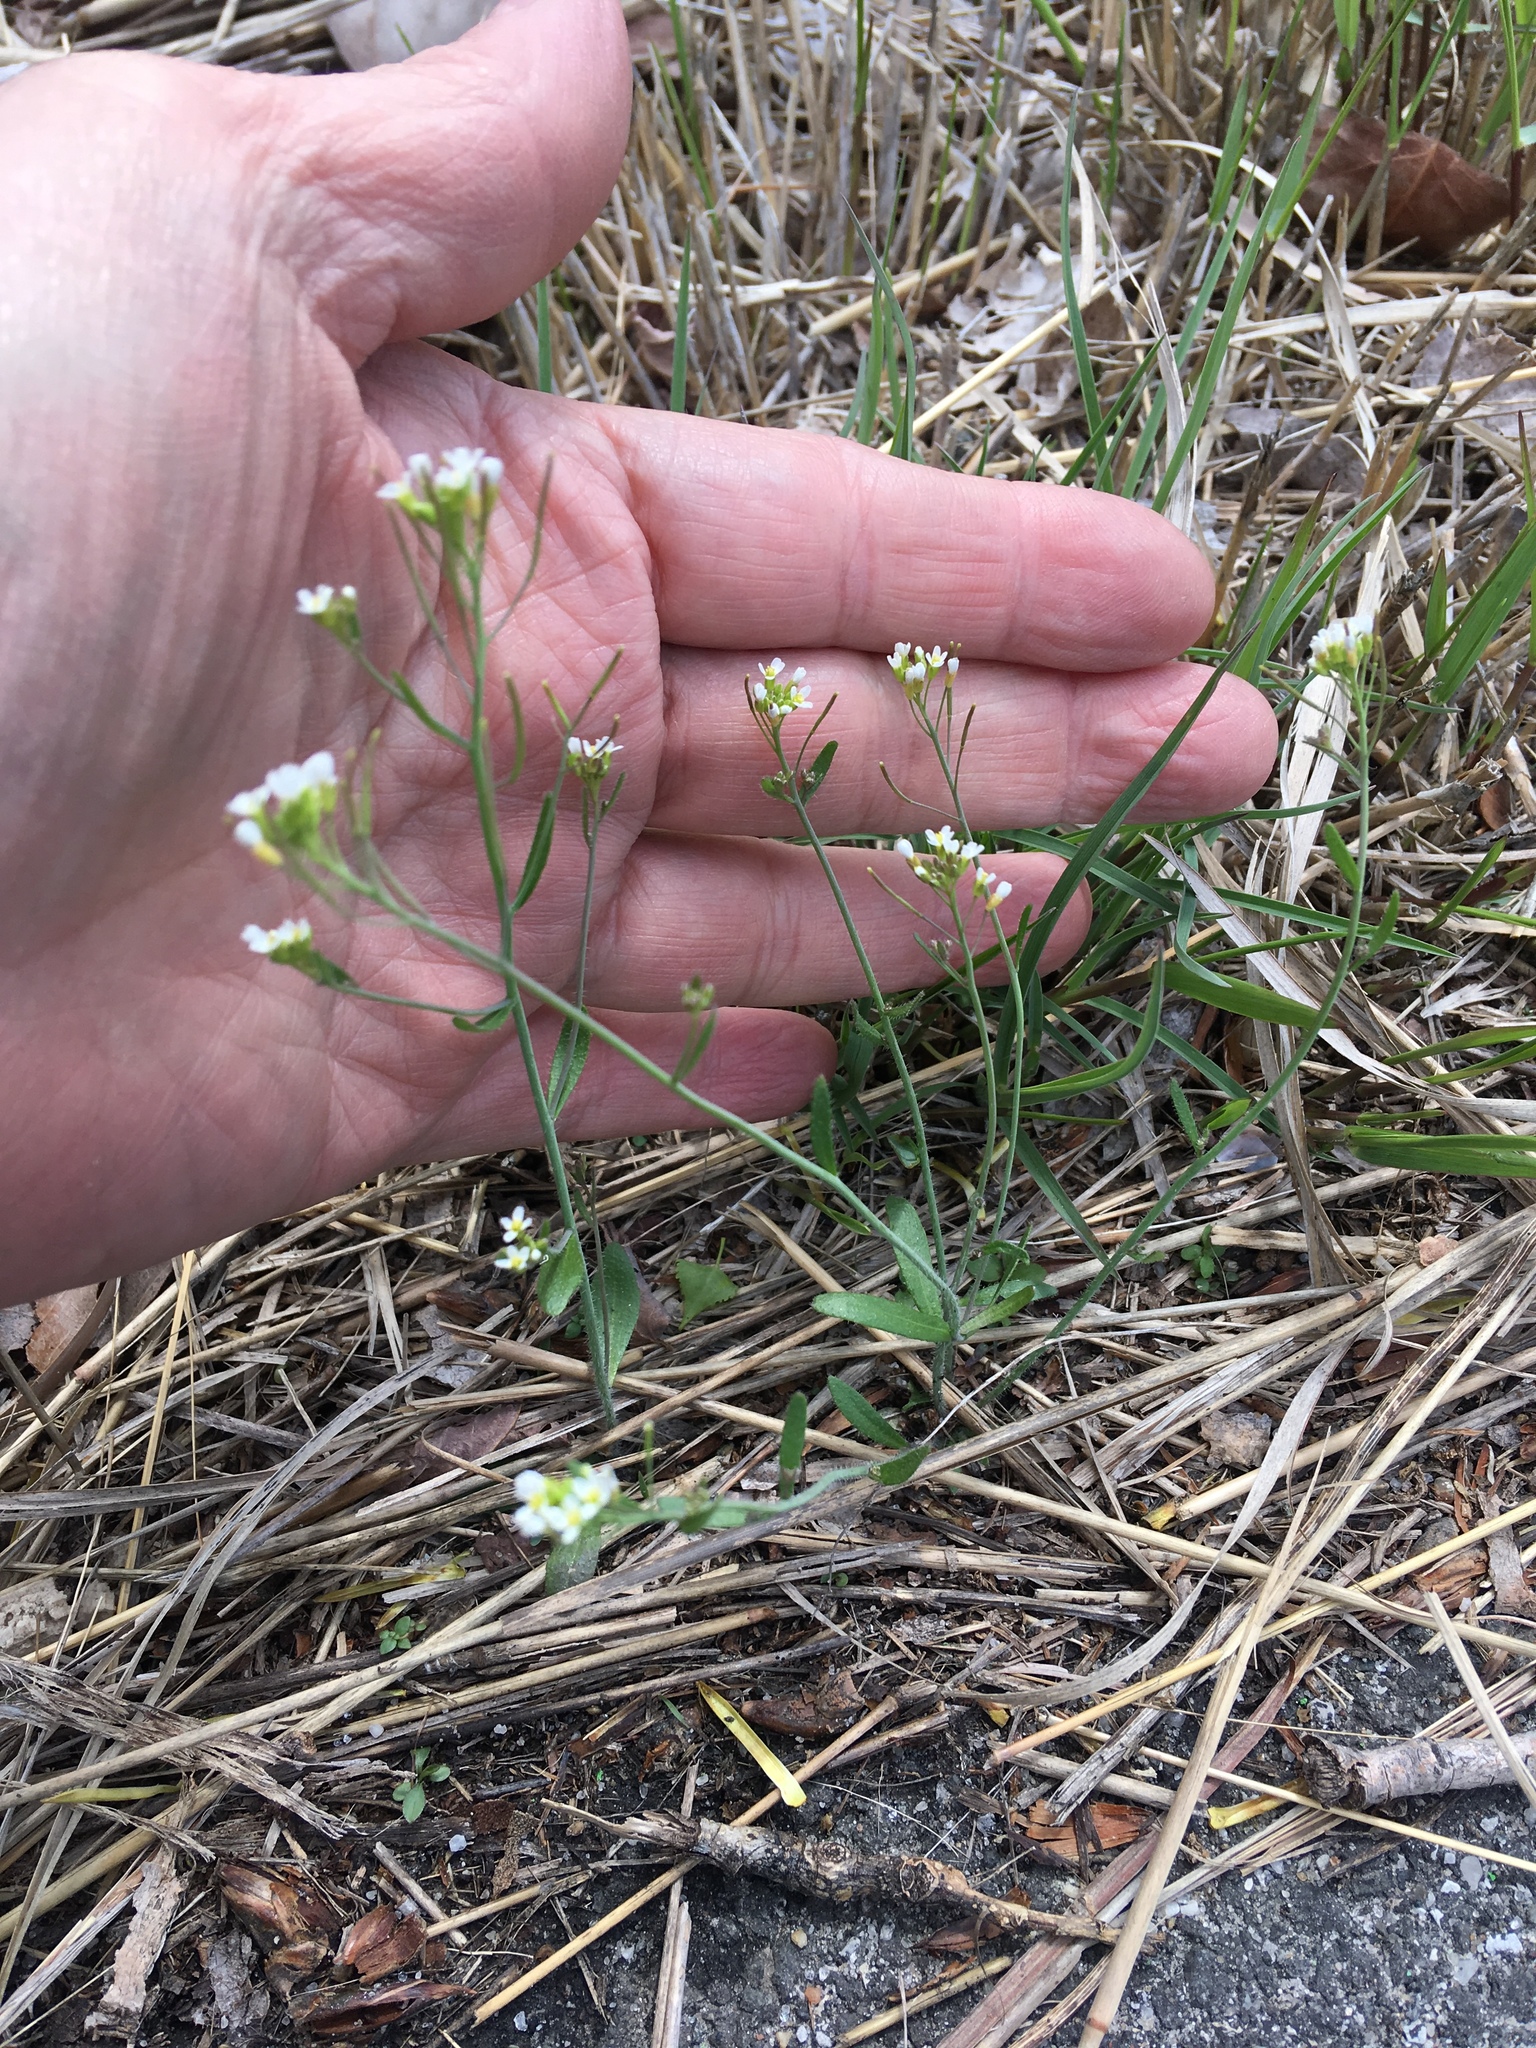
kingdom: Plantae
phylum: Tracheophyta
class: Magnoliopsida
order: Brassicales
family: Brassicaceae
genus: Arabidopsis
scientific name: Arabidopsis thaliana
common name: Thale cress
